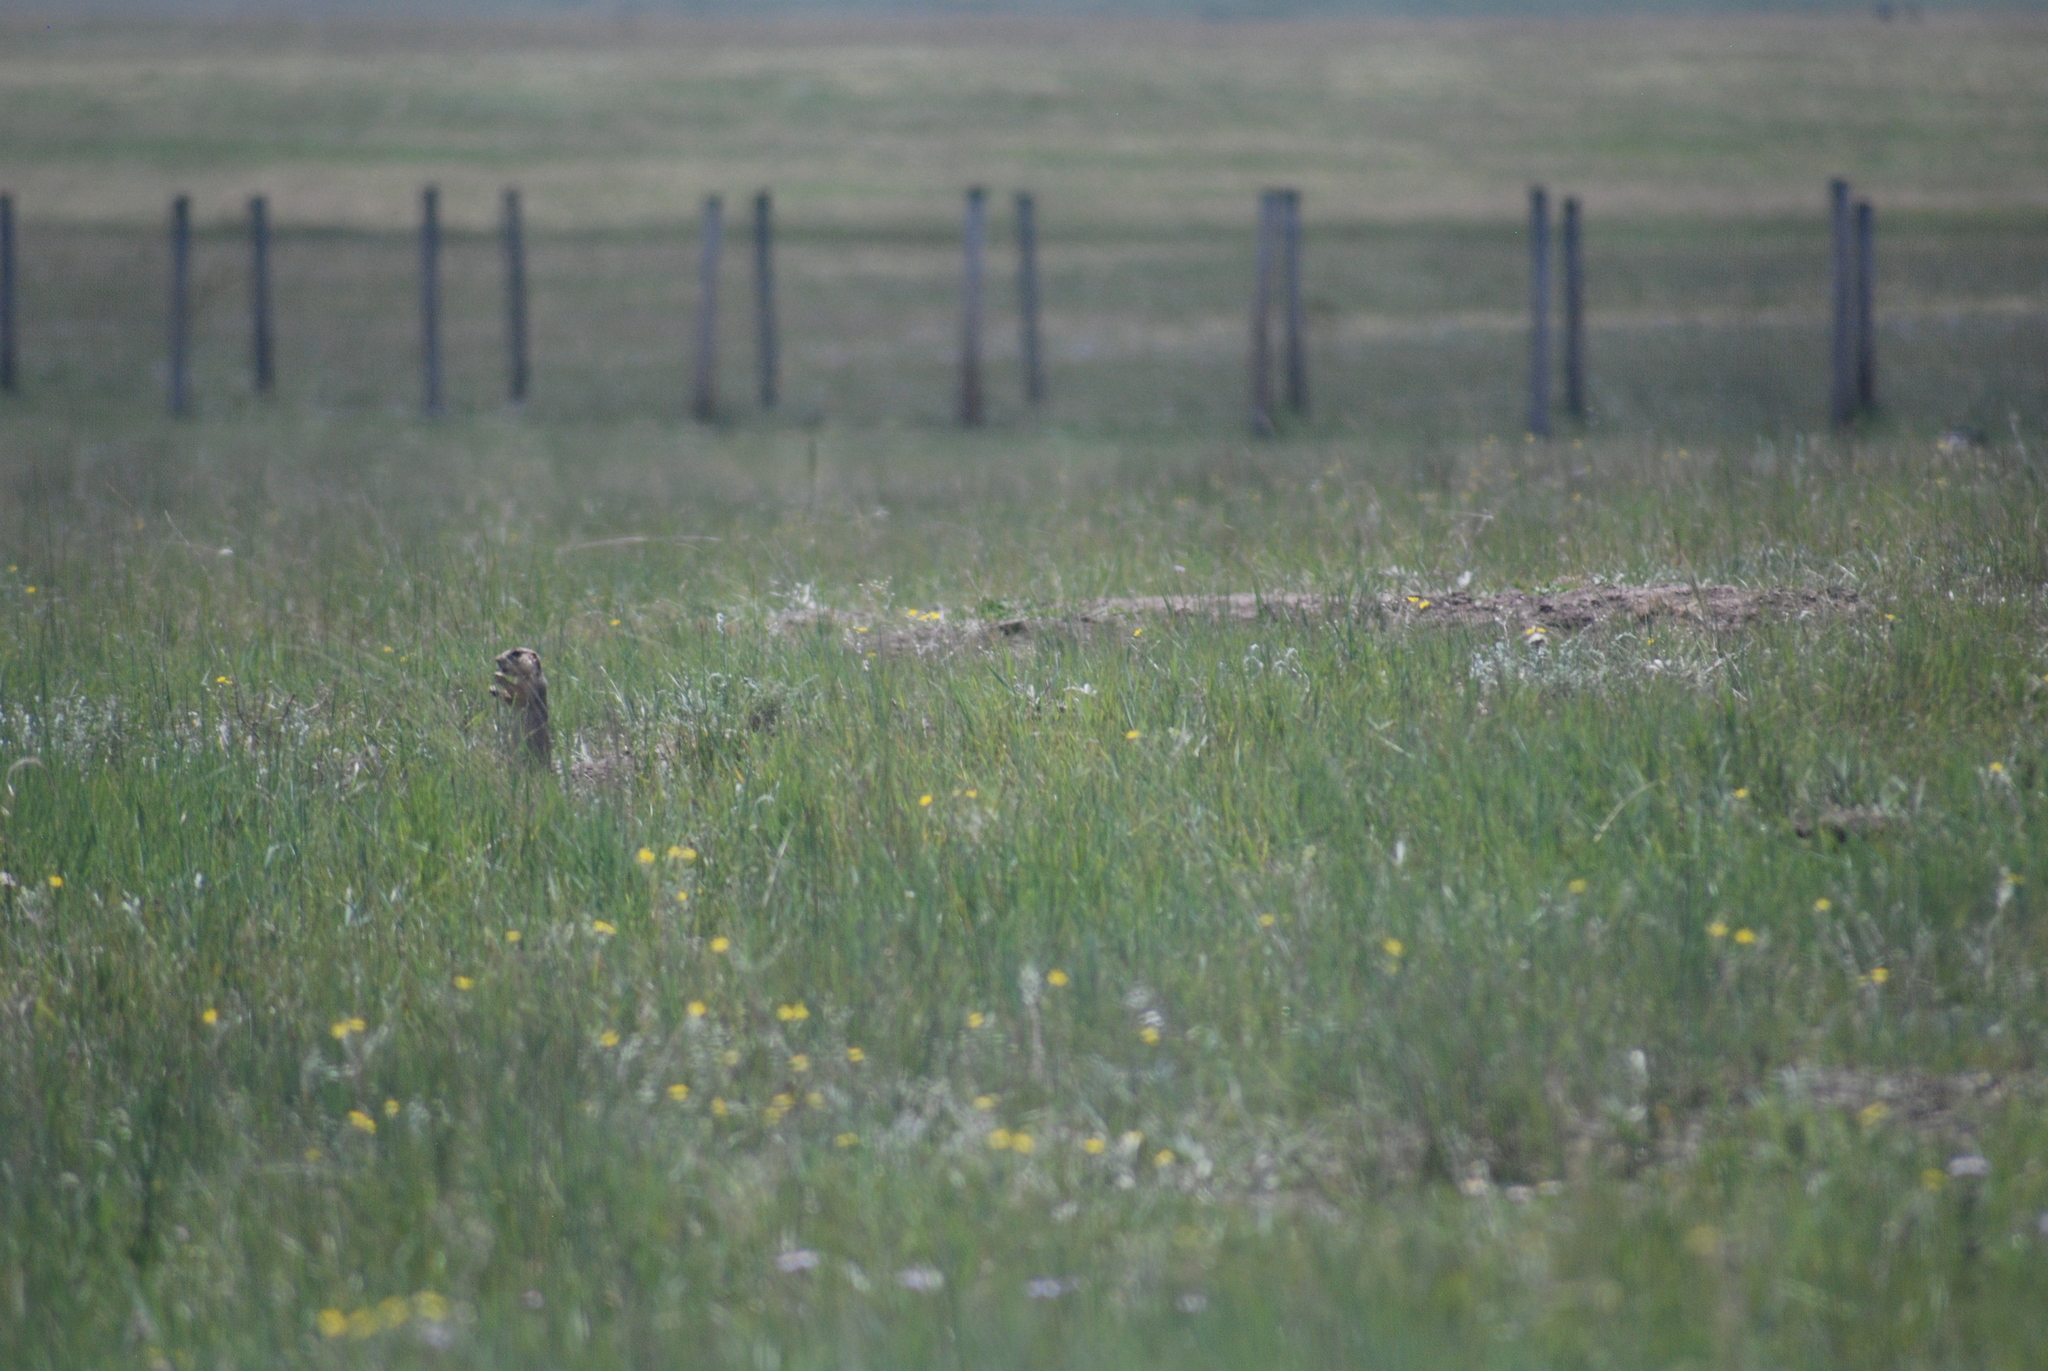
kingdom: Animalia
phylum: Chordata
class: Mammalia
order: Rodentia
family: Sciuridae
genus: Cynomys
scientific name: Cynomys gunnisoni
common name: Gunnison's prairie dog
